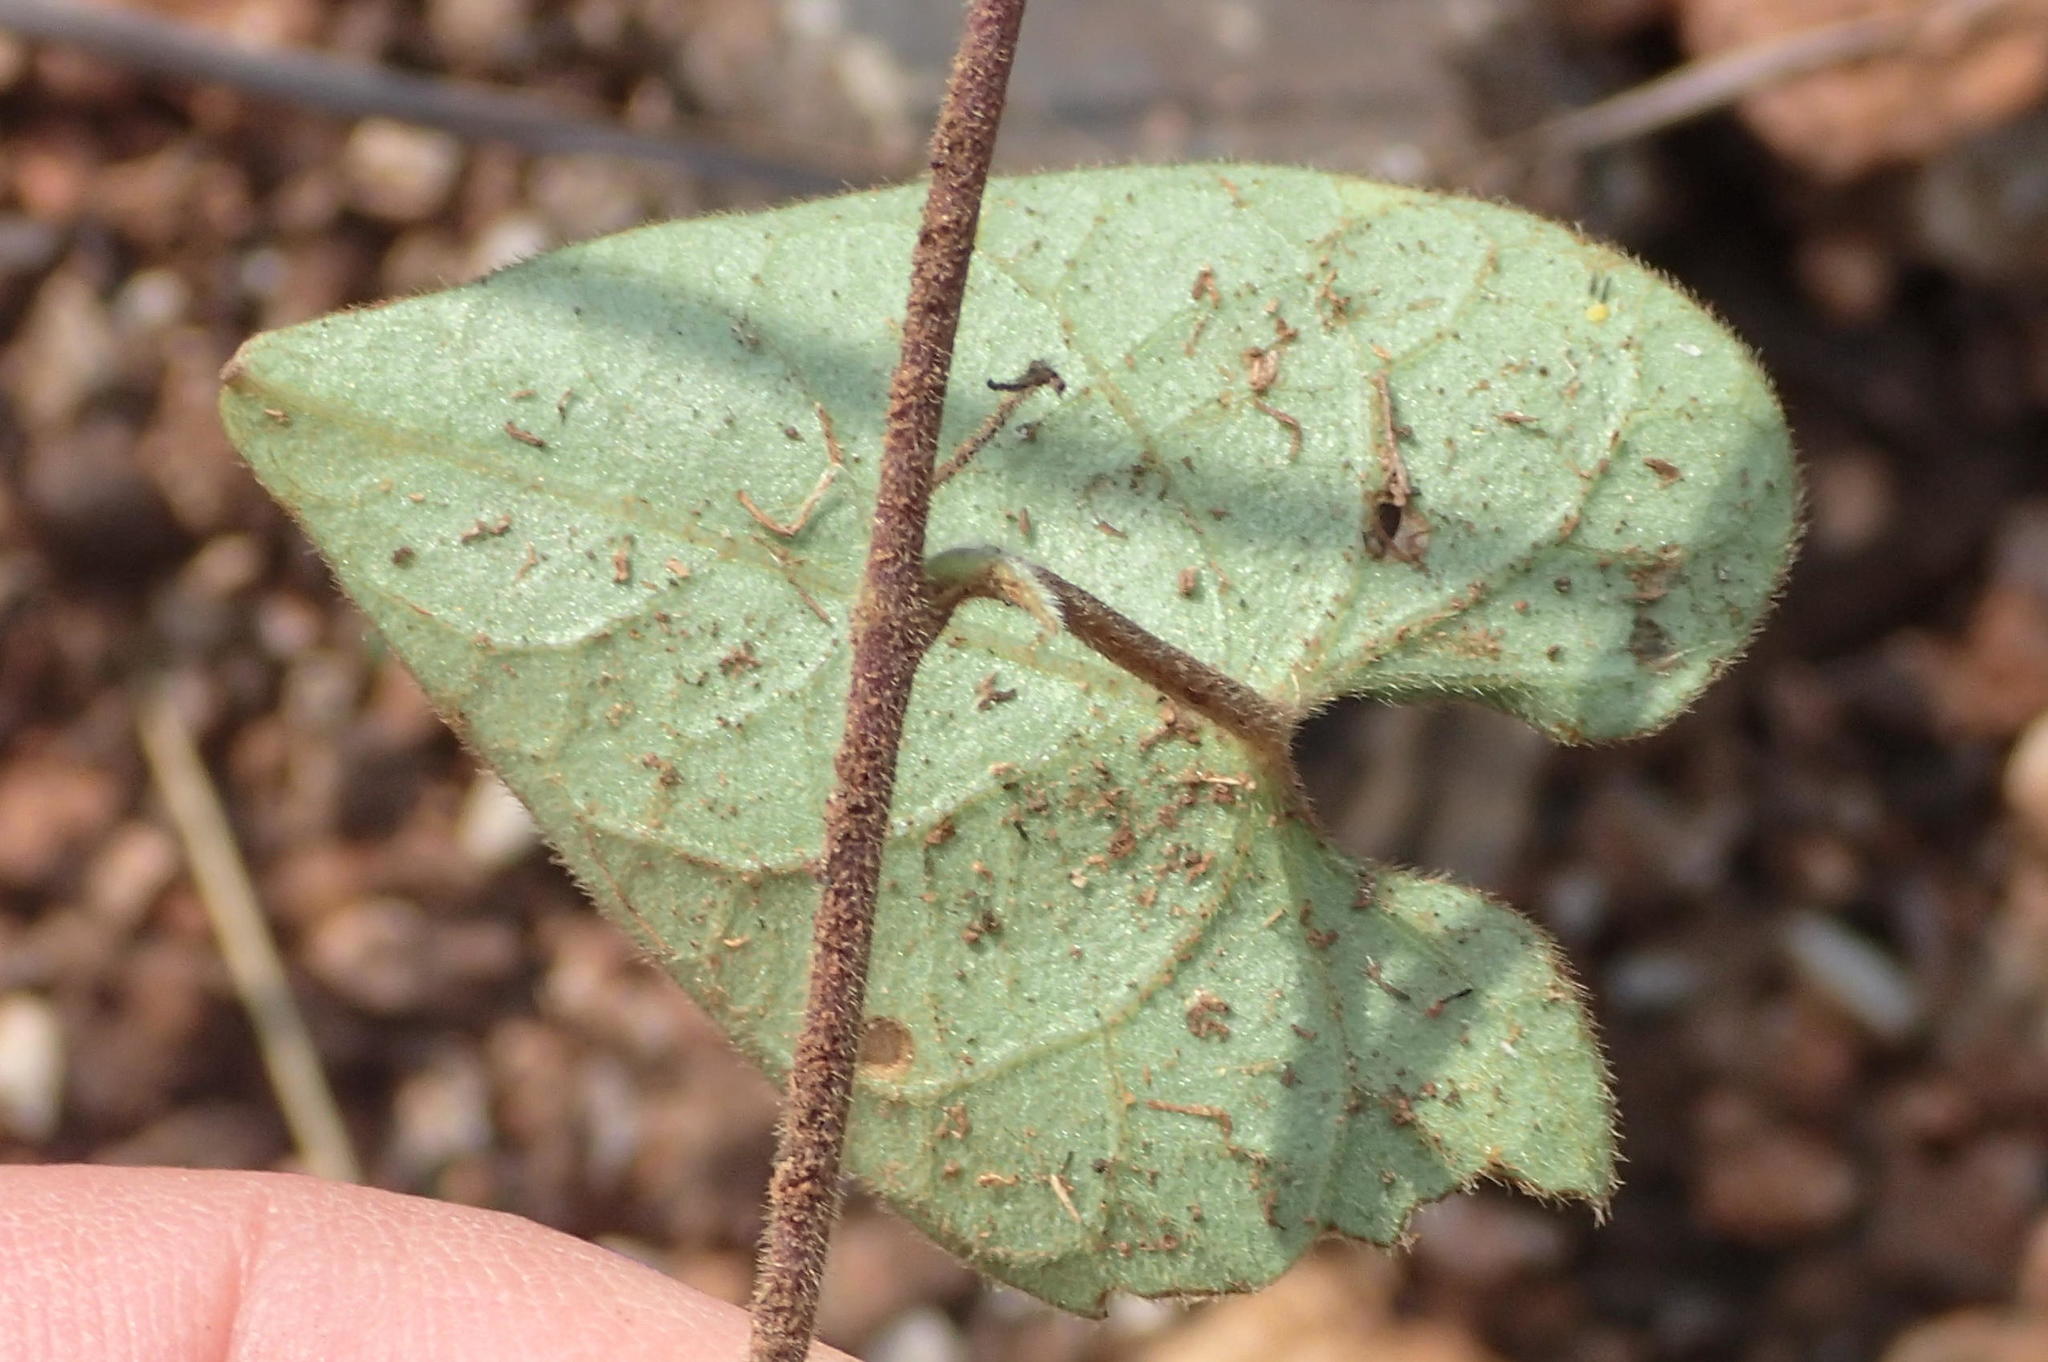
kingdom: Plantae
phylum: Tracheophyta
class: Magnoliopsida
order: Gentianales
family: Apocynaceae
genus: Cynanchum
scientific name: Cynanchum
